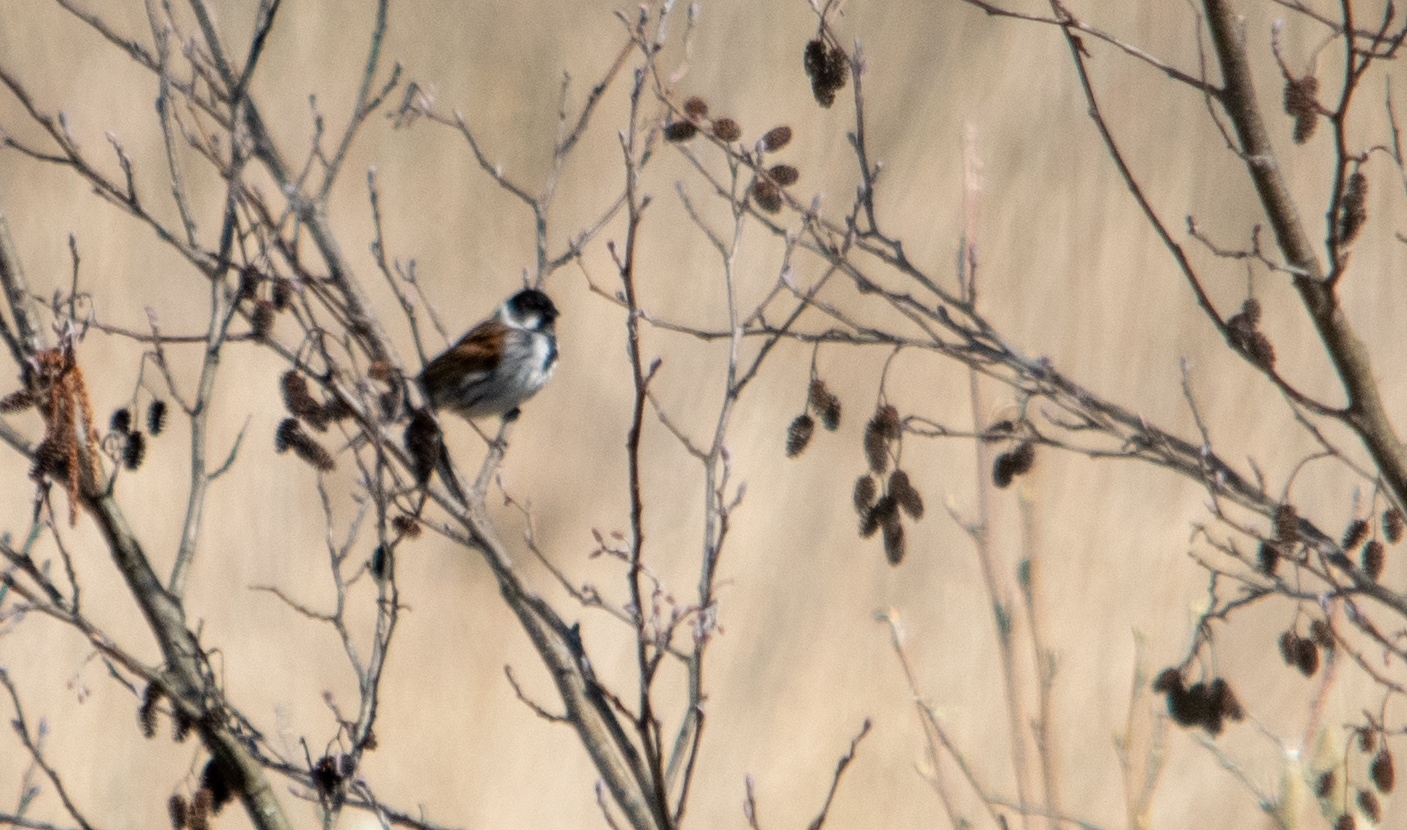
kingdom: Animalia
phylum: Chordata
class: Aves
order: Passeriformes
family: Emberizidae
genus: Emberiza
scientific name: Emberiza schoeniclus
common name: Reed bunting
